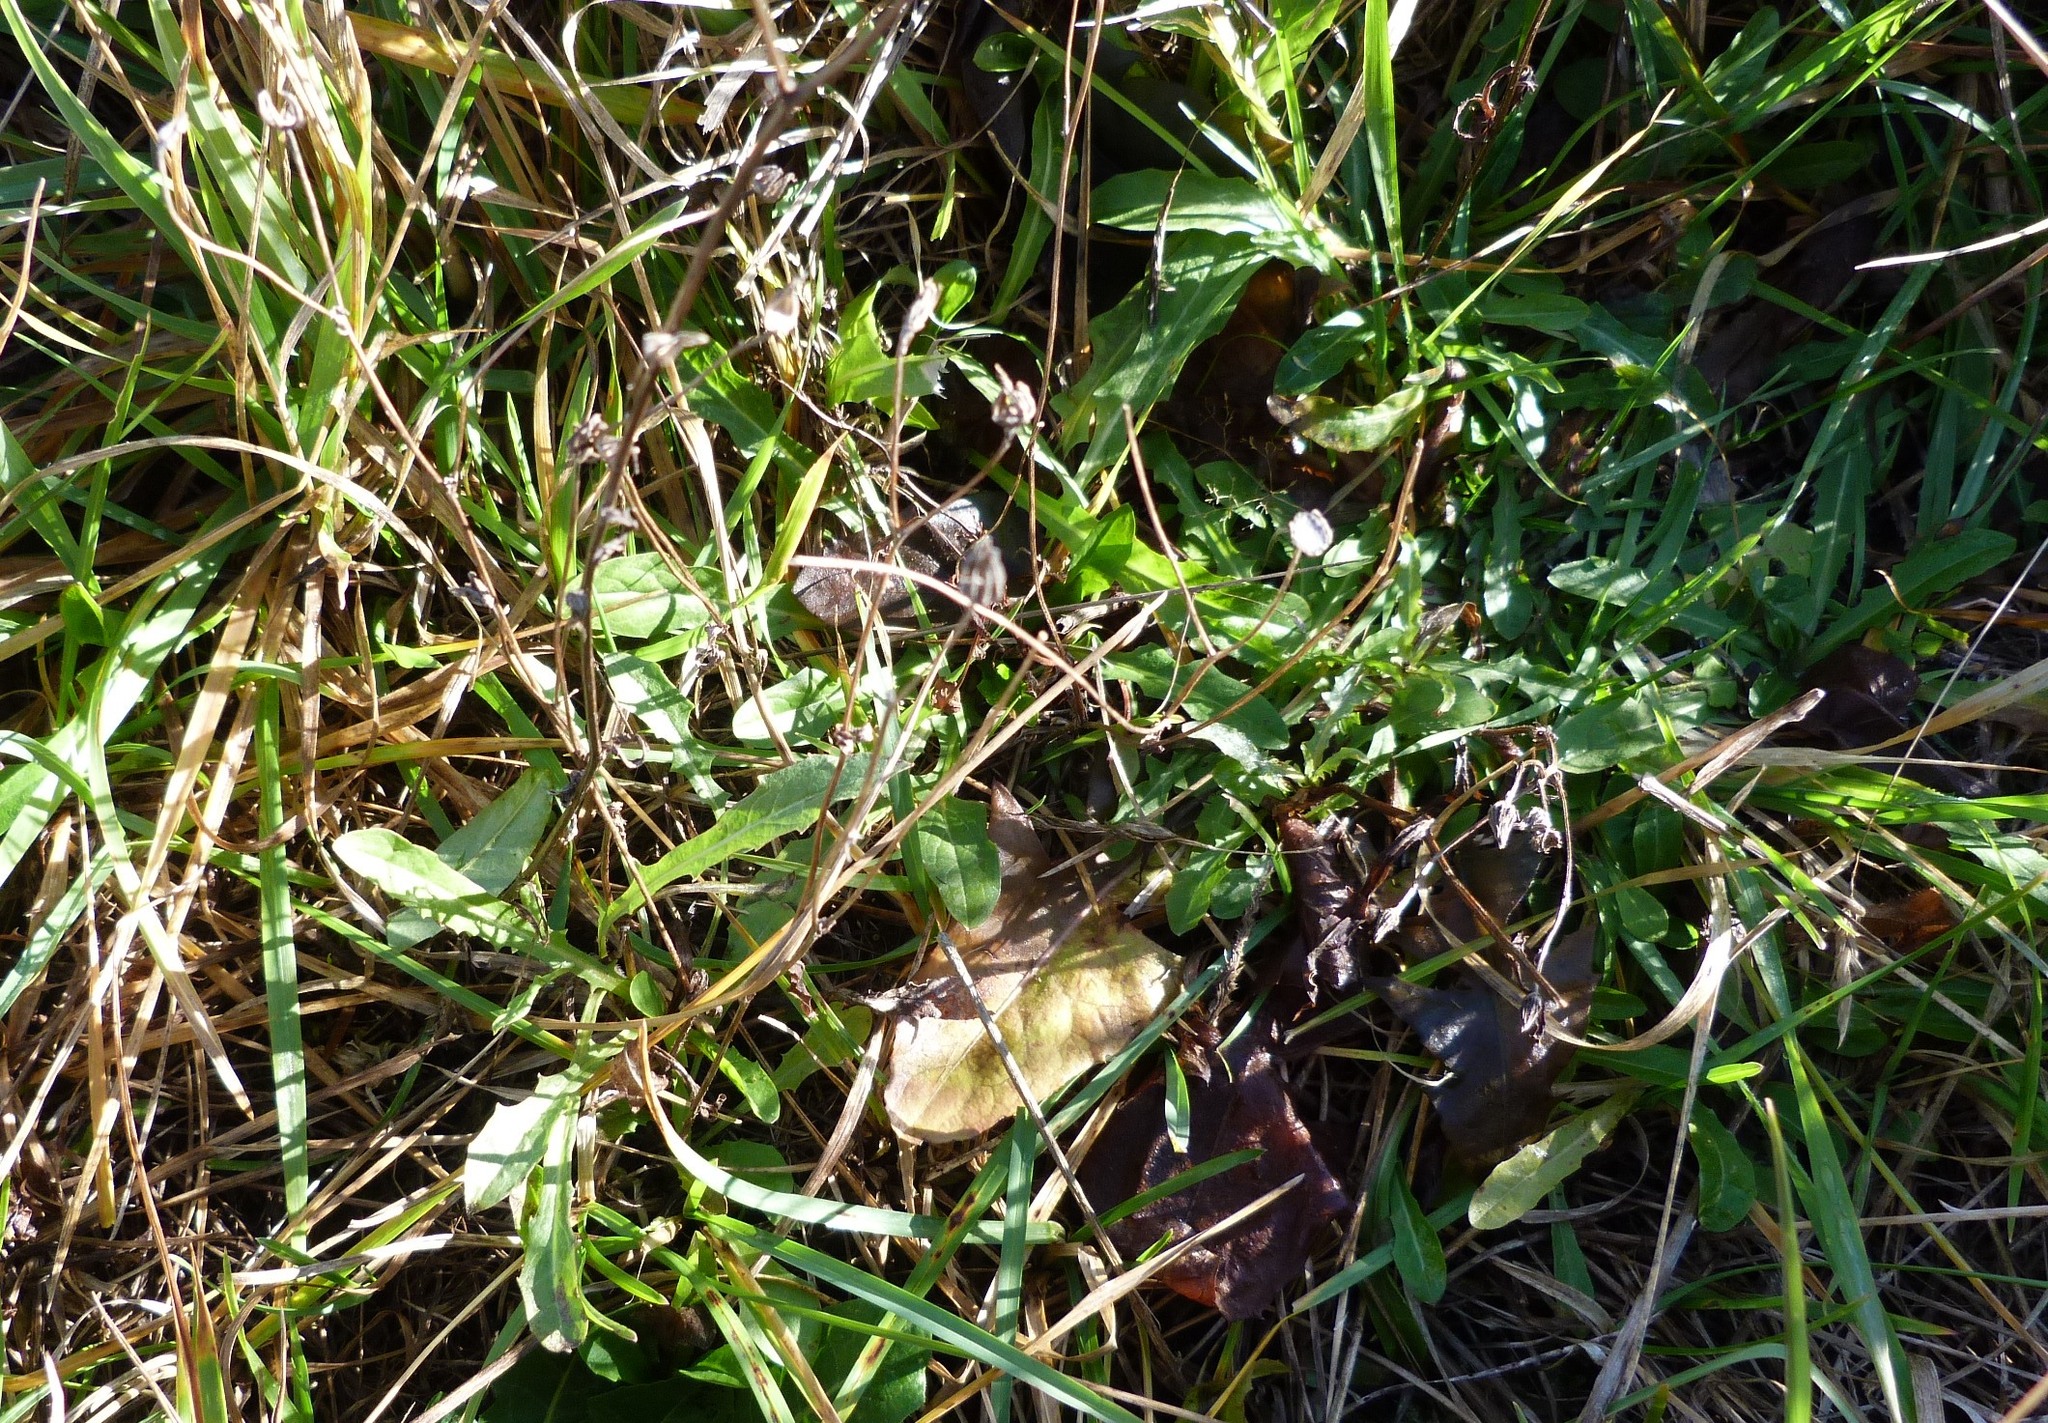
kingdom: Plantae
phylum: Tracheophyta
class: Magnoliopsida
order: Asterales
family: Asteraceae
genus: Crepis
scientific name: Crepis capillaris
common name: Smooth hawksbeard
